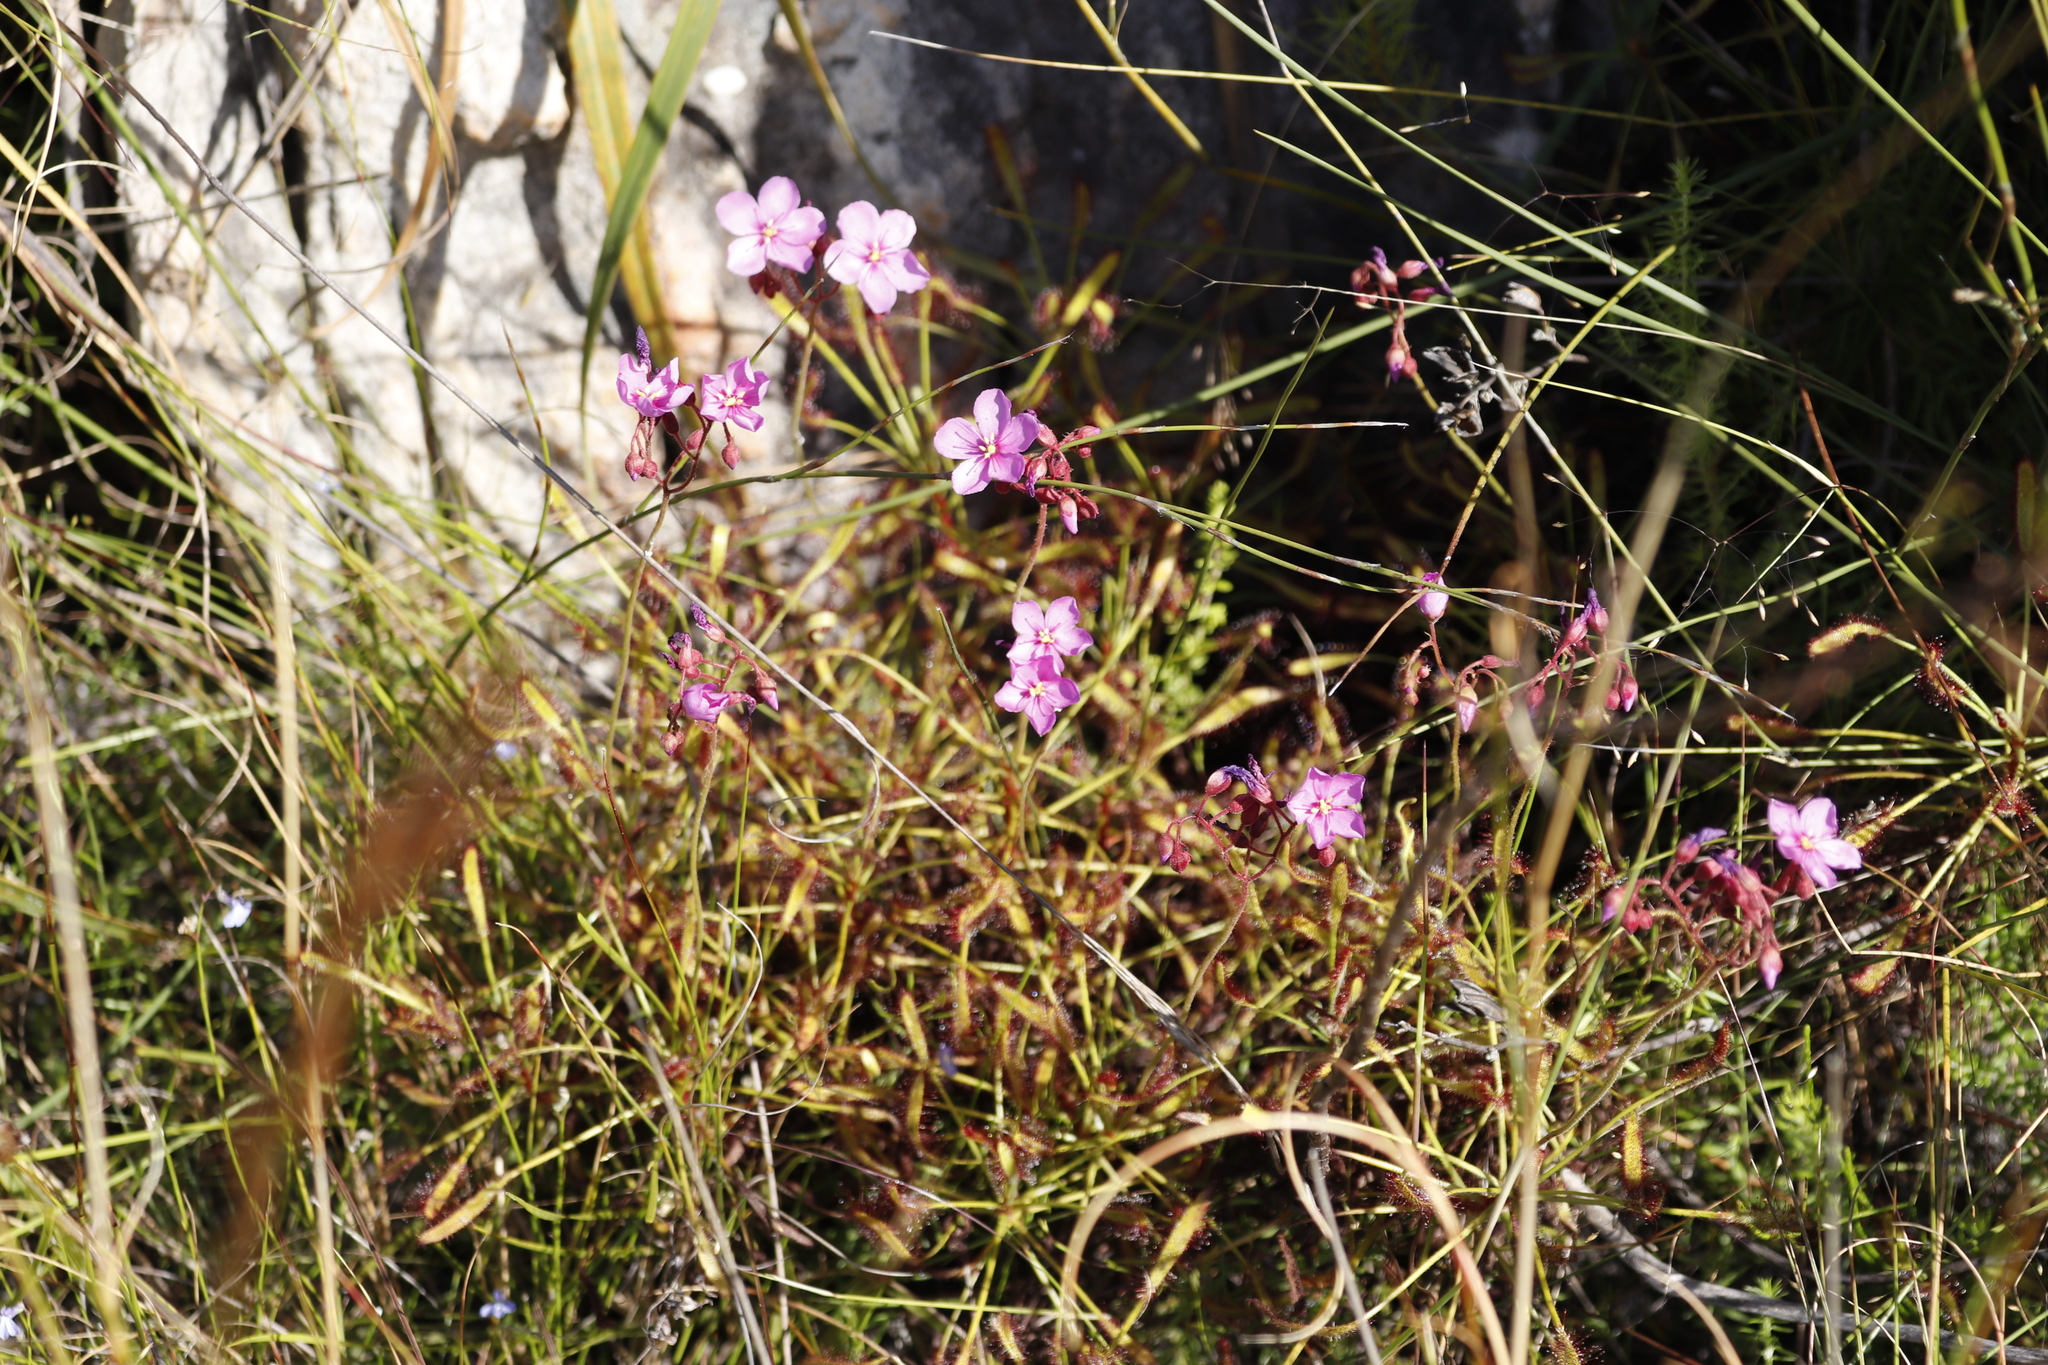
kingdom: Plantae
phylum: Tracheophyta
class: Magnoliopsida
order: Caryophyllales
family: Droseraceae
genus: Drosera
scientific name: Drosera ramentacea
